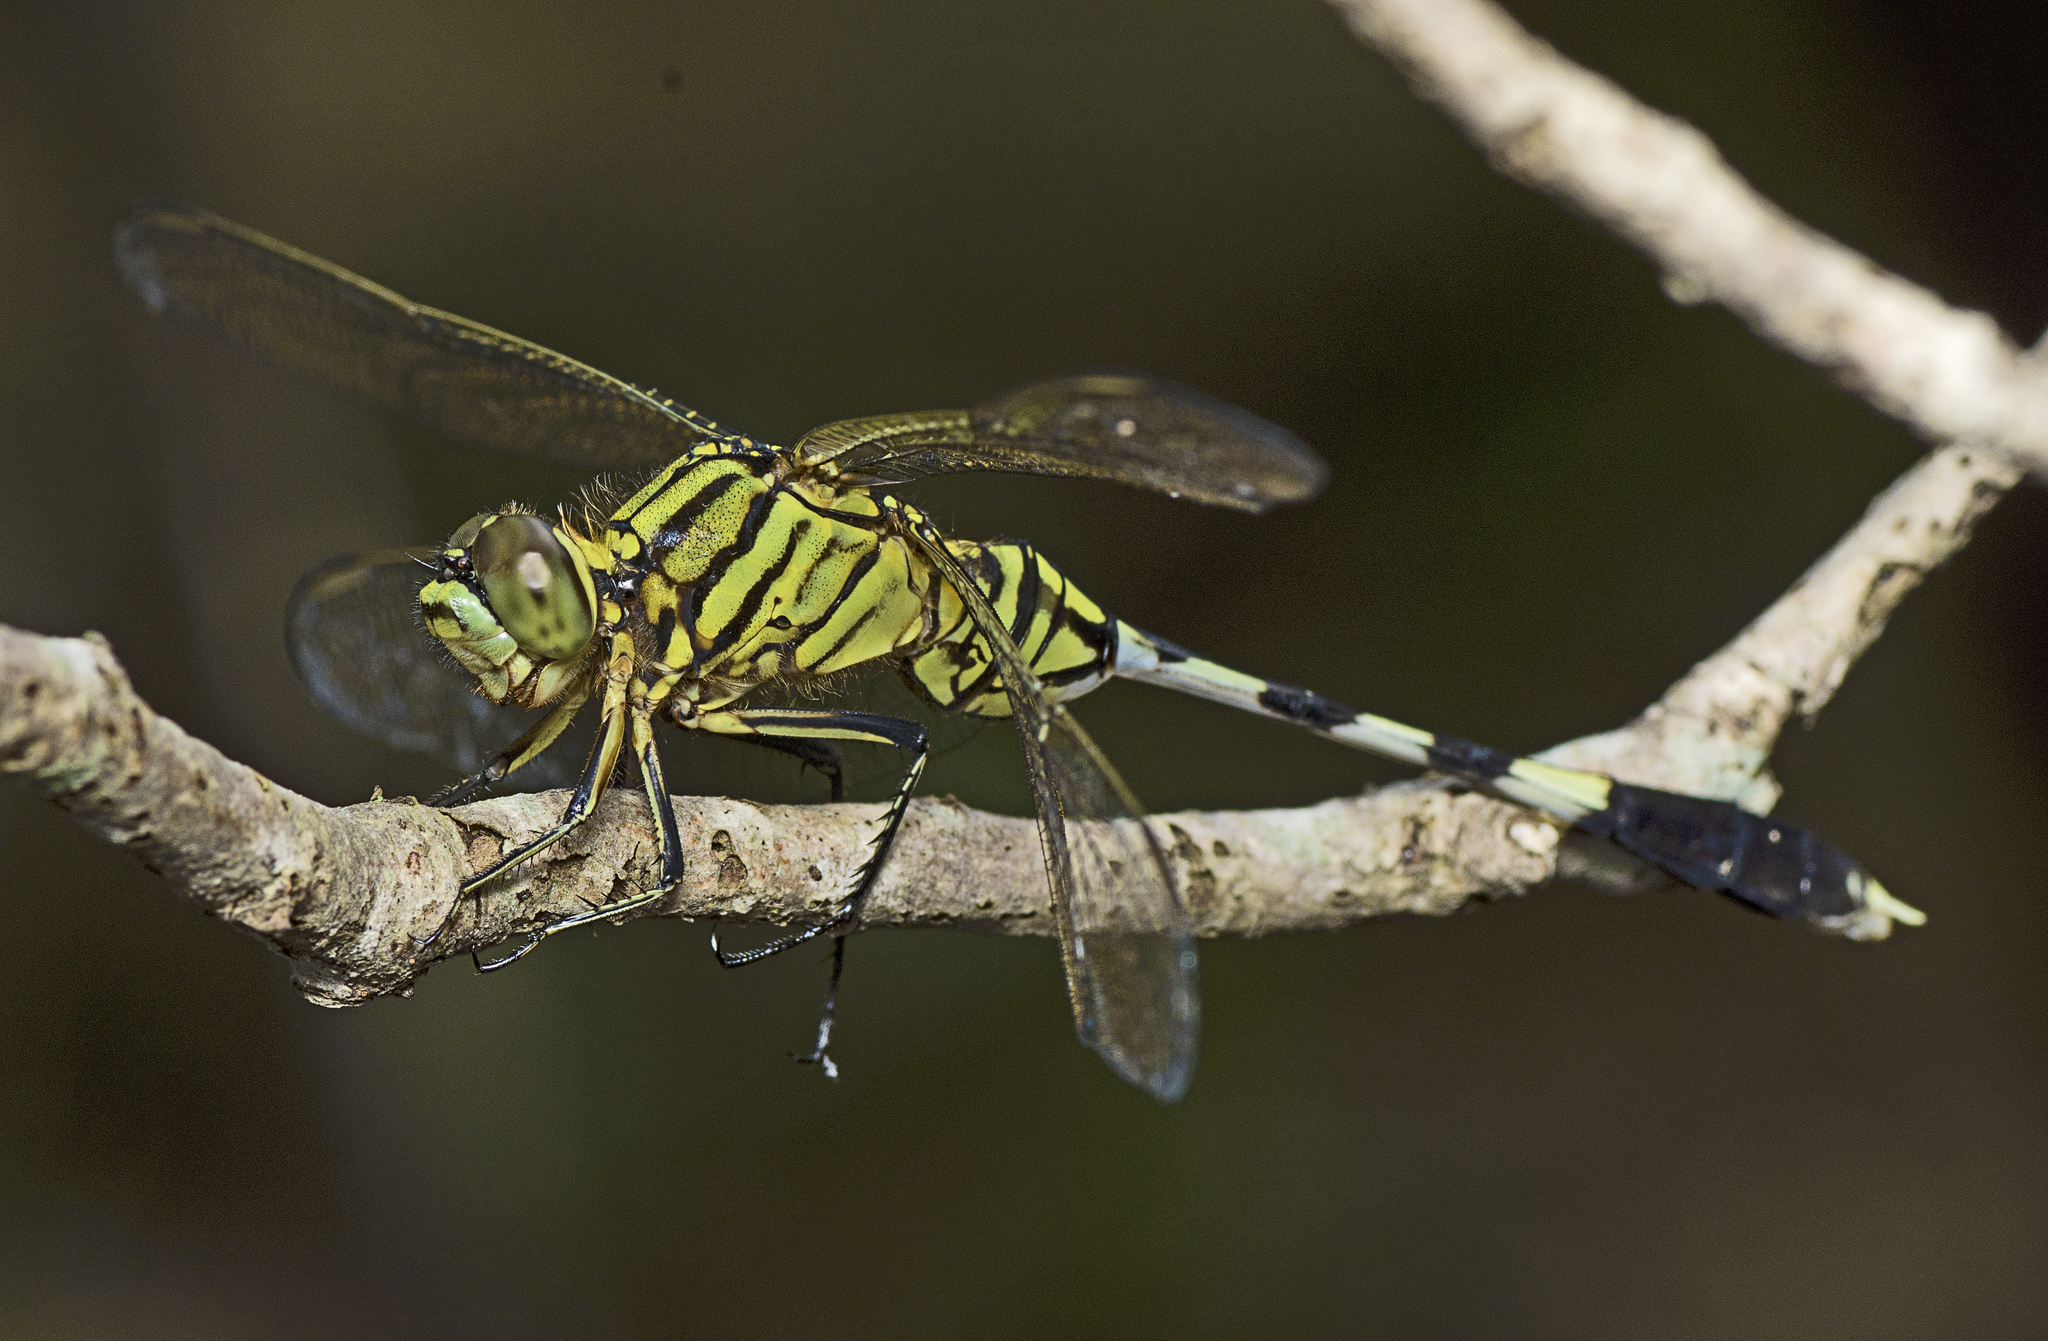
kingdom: Animalia
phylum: Arthropoda
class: Insecta
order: Odonata
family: Libellulidae
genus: Orthetrum
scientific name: Orthetrum sabina
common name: Slender skimmer
